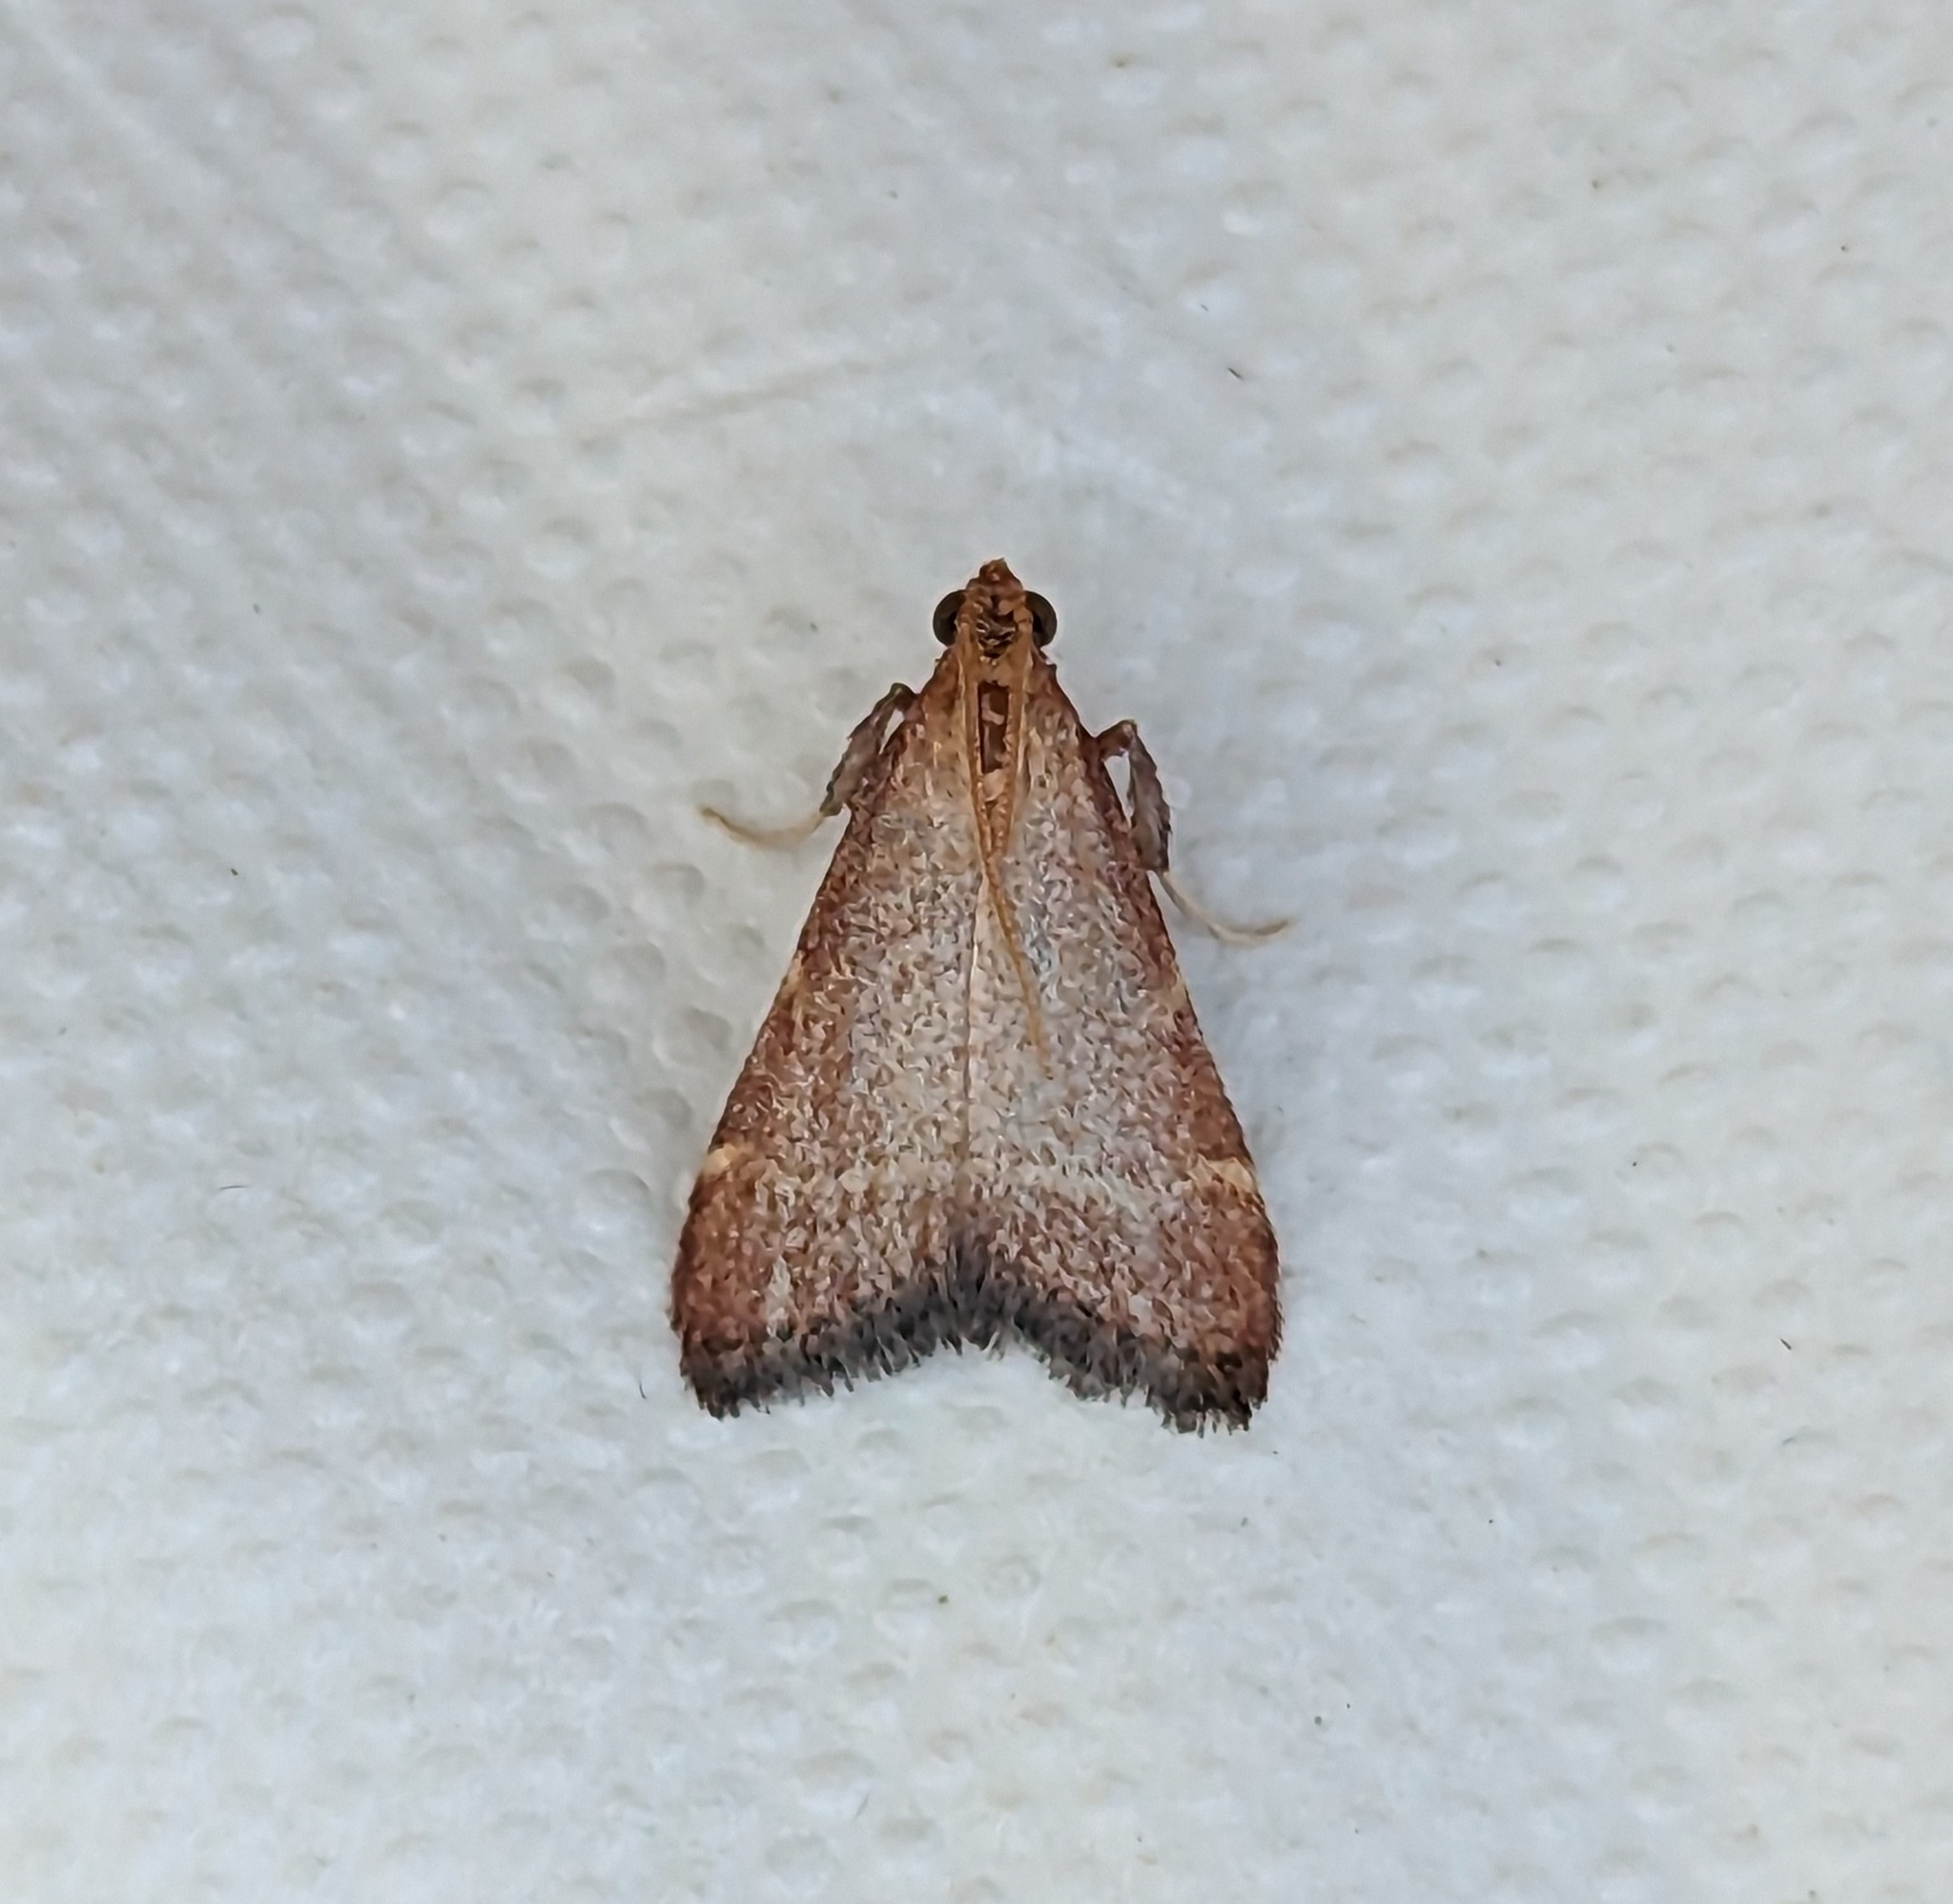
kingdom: Animalia
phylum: Arthropoda
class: Insecta
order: Lepidoptera
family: Pyralidae
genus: Arta
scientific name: Arta epicoenalis
